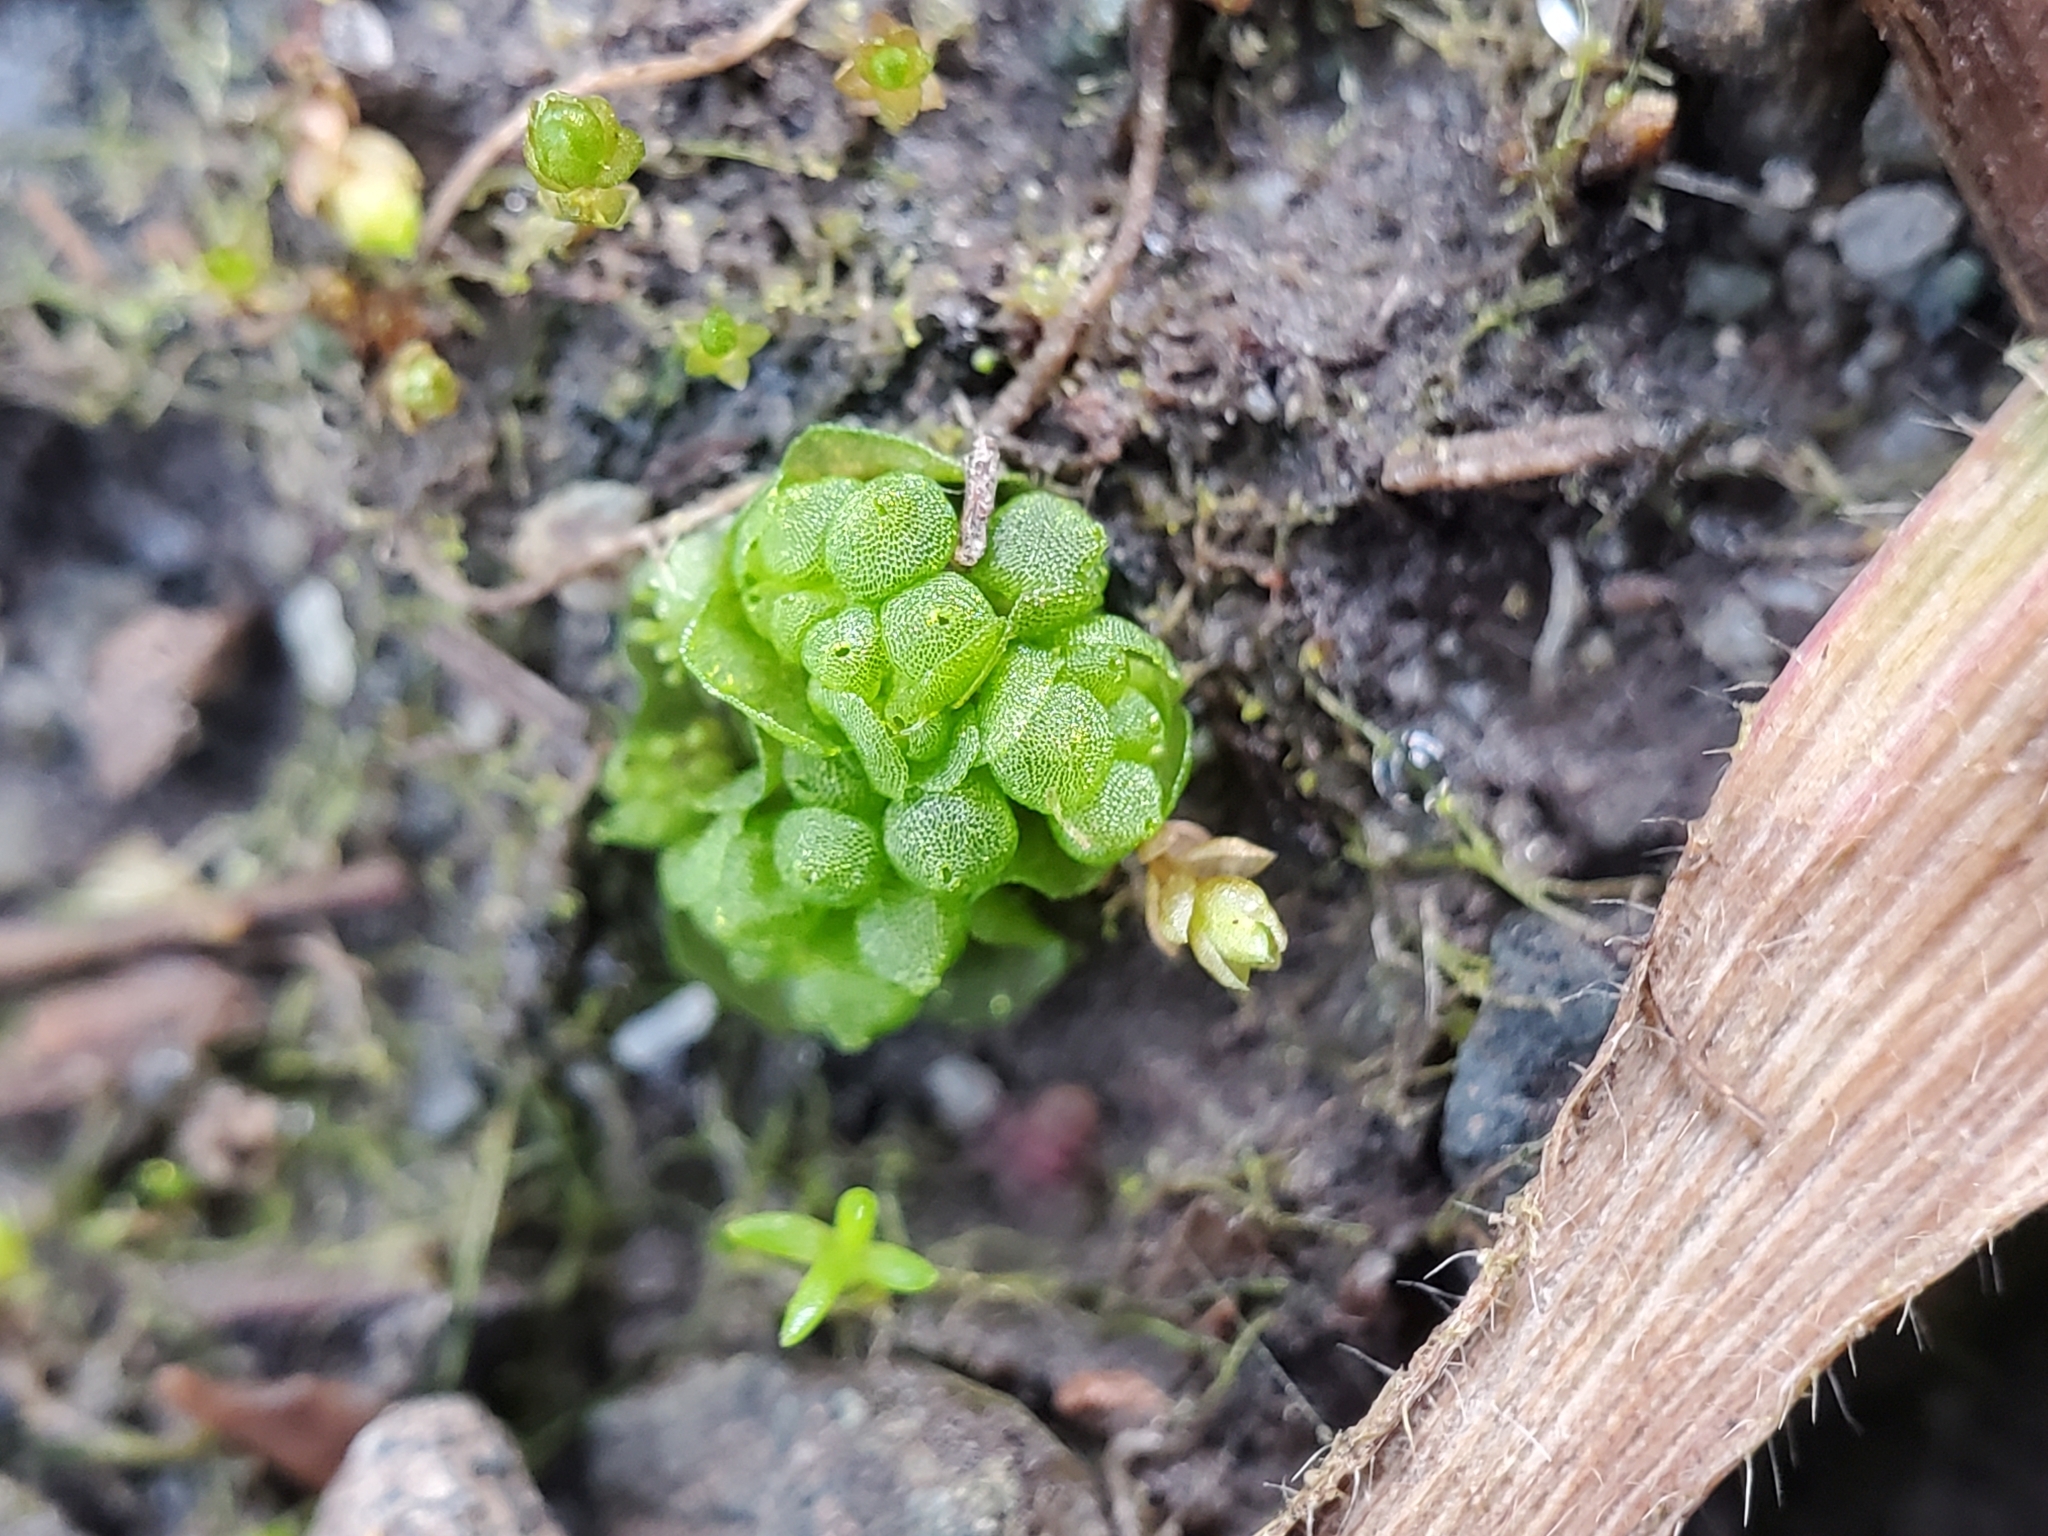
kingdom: Plantae
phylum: Marchantiophyta
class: Marchantiopsida
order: Sphaerocarpales
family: Sphaerocarpaceae
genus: Sphaerocarpos
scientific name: Sphaerocarpos texanus
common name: Texas balloonwort
